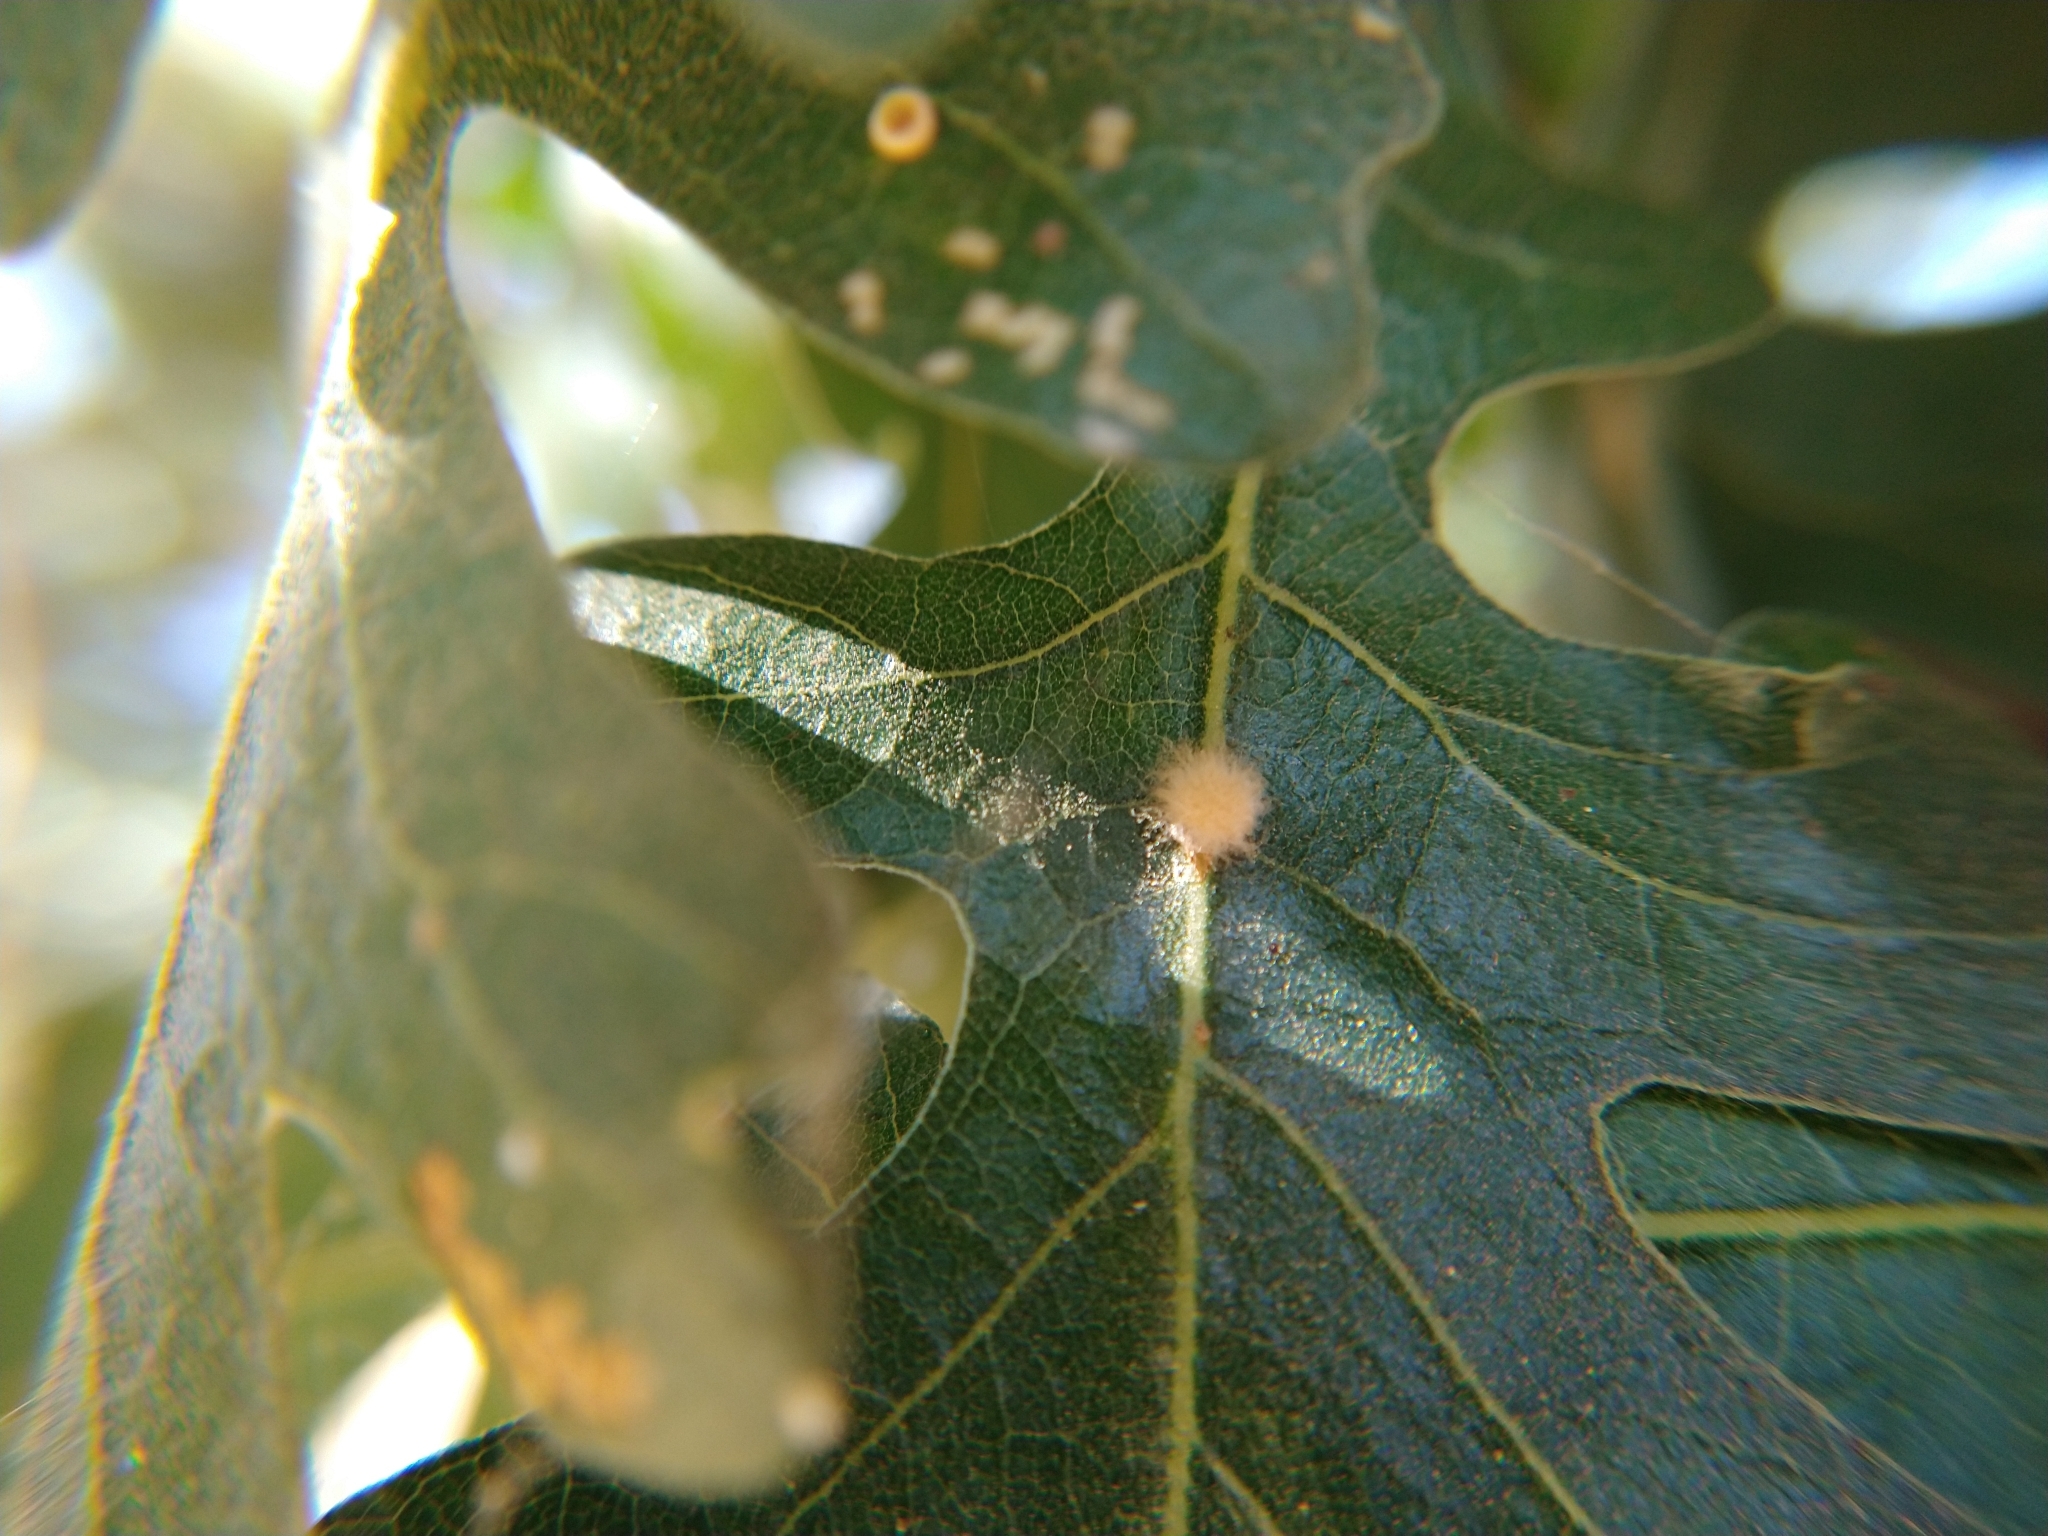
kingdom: Animalia
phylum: Arthropoda
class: Insecta
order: Hymenoptera
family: Cynipidae
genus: Andricus
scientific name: Andricus Druon fullawayi
